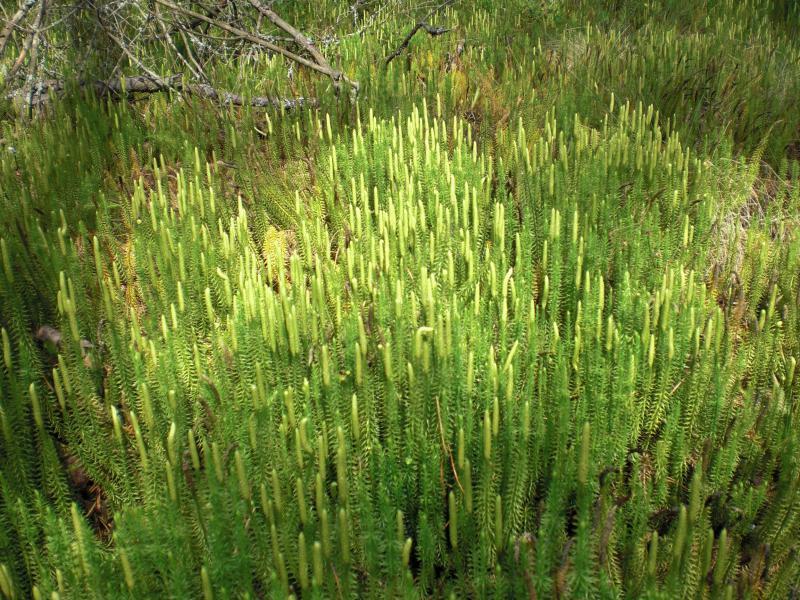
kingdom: Plantae
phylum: Tracheophyta
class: Lycopodiopsida
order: Lycopodiales
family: Lycopodiaceae
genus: Spinulum
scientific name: Spinulum annotinum
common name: Interrupted club-moss
